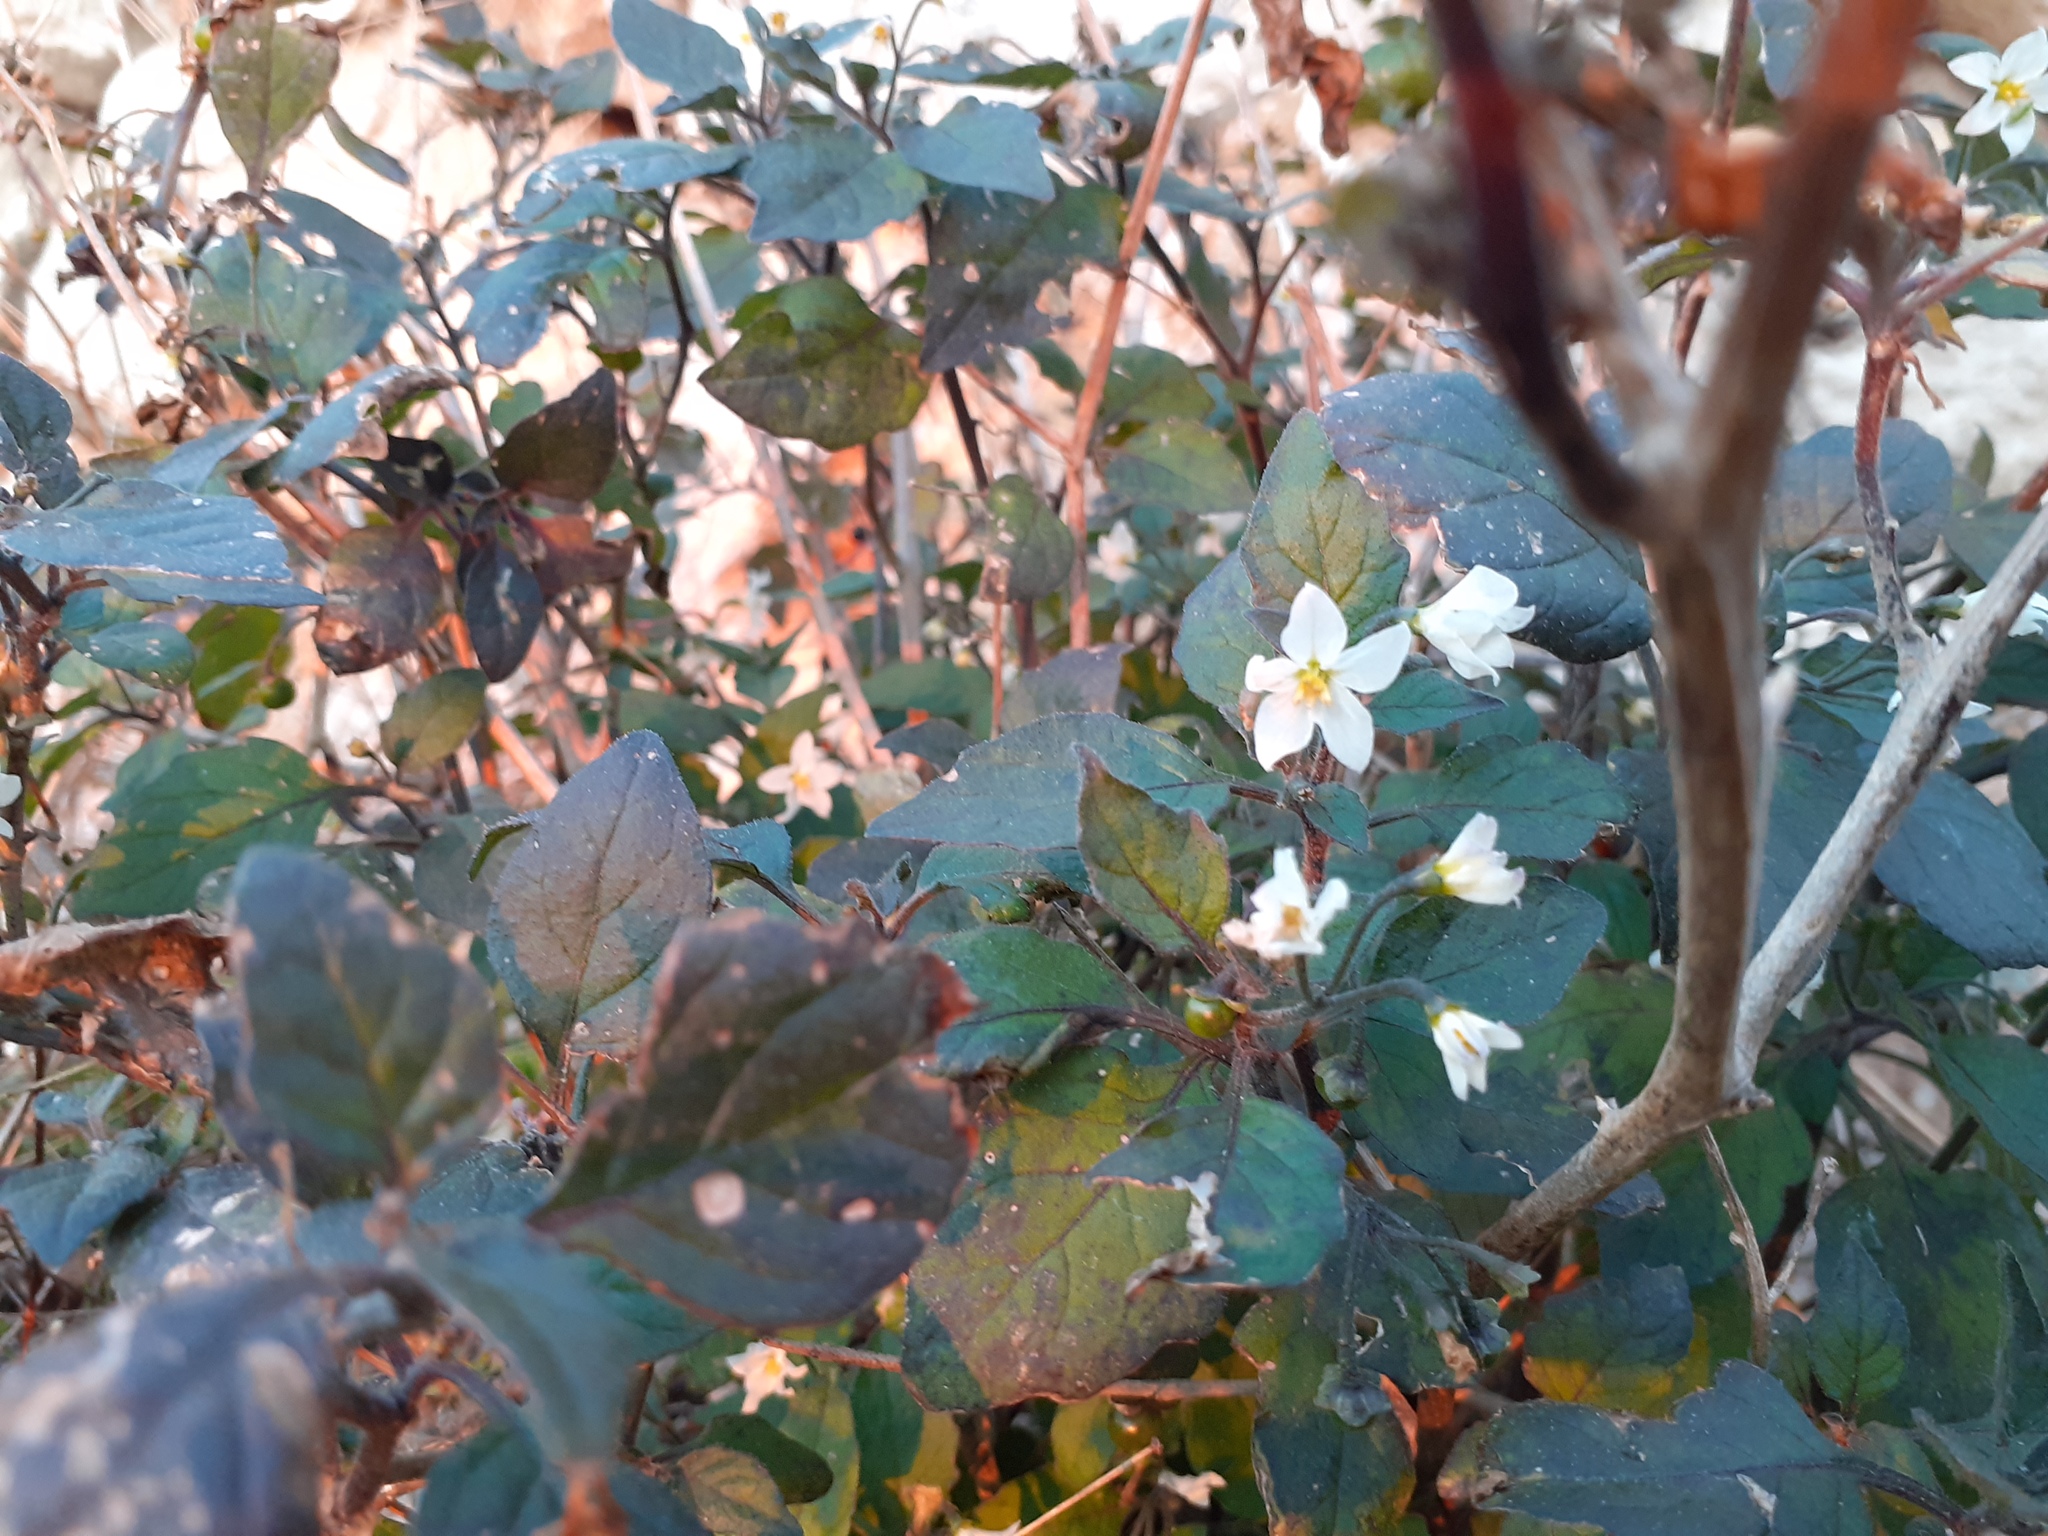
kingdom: Plantae
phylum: Tracheophyta
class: Magnoliopsida
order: Solanales
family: Solanaceae
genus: Solanum
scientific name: Solanum nigrum
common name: Black nightshade
